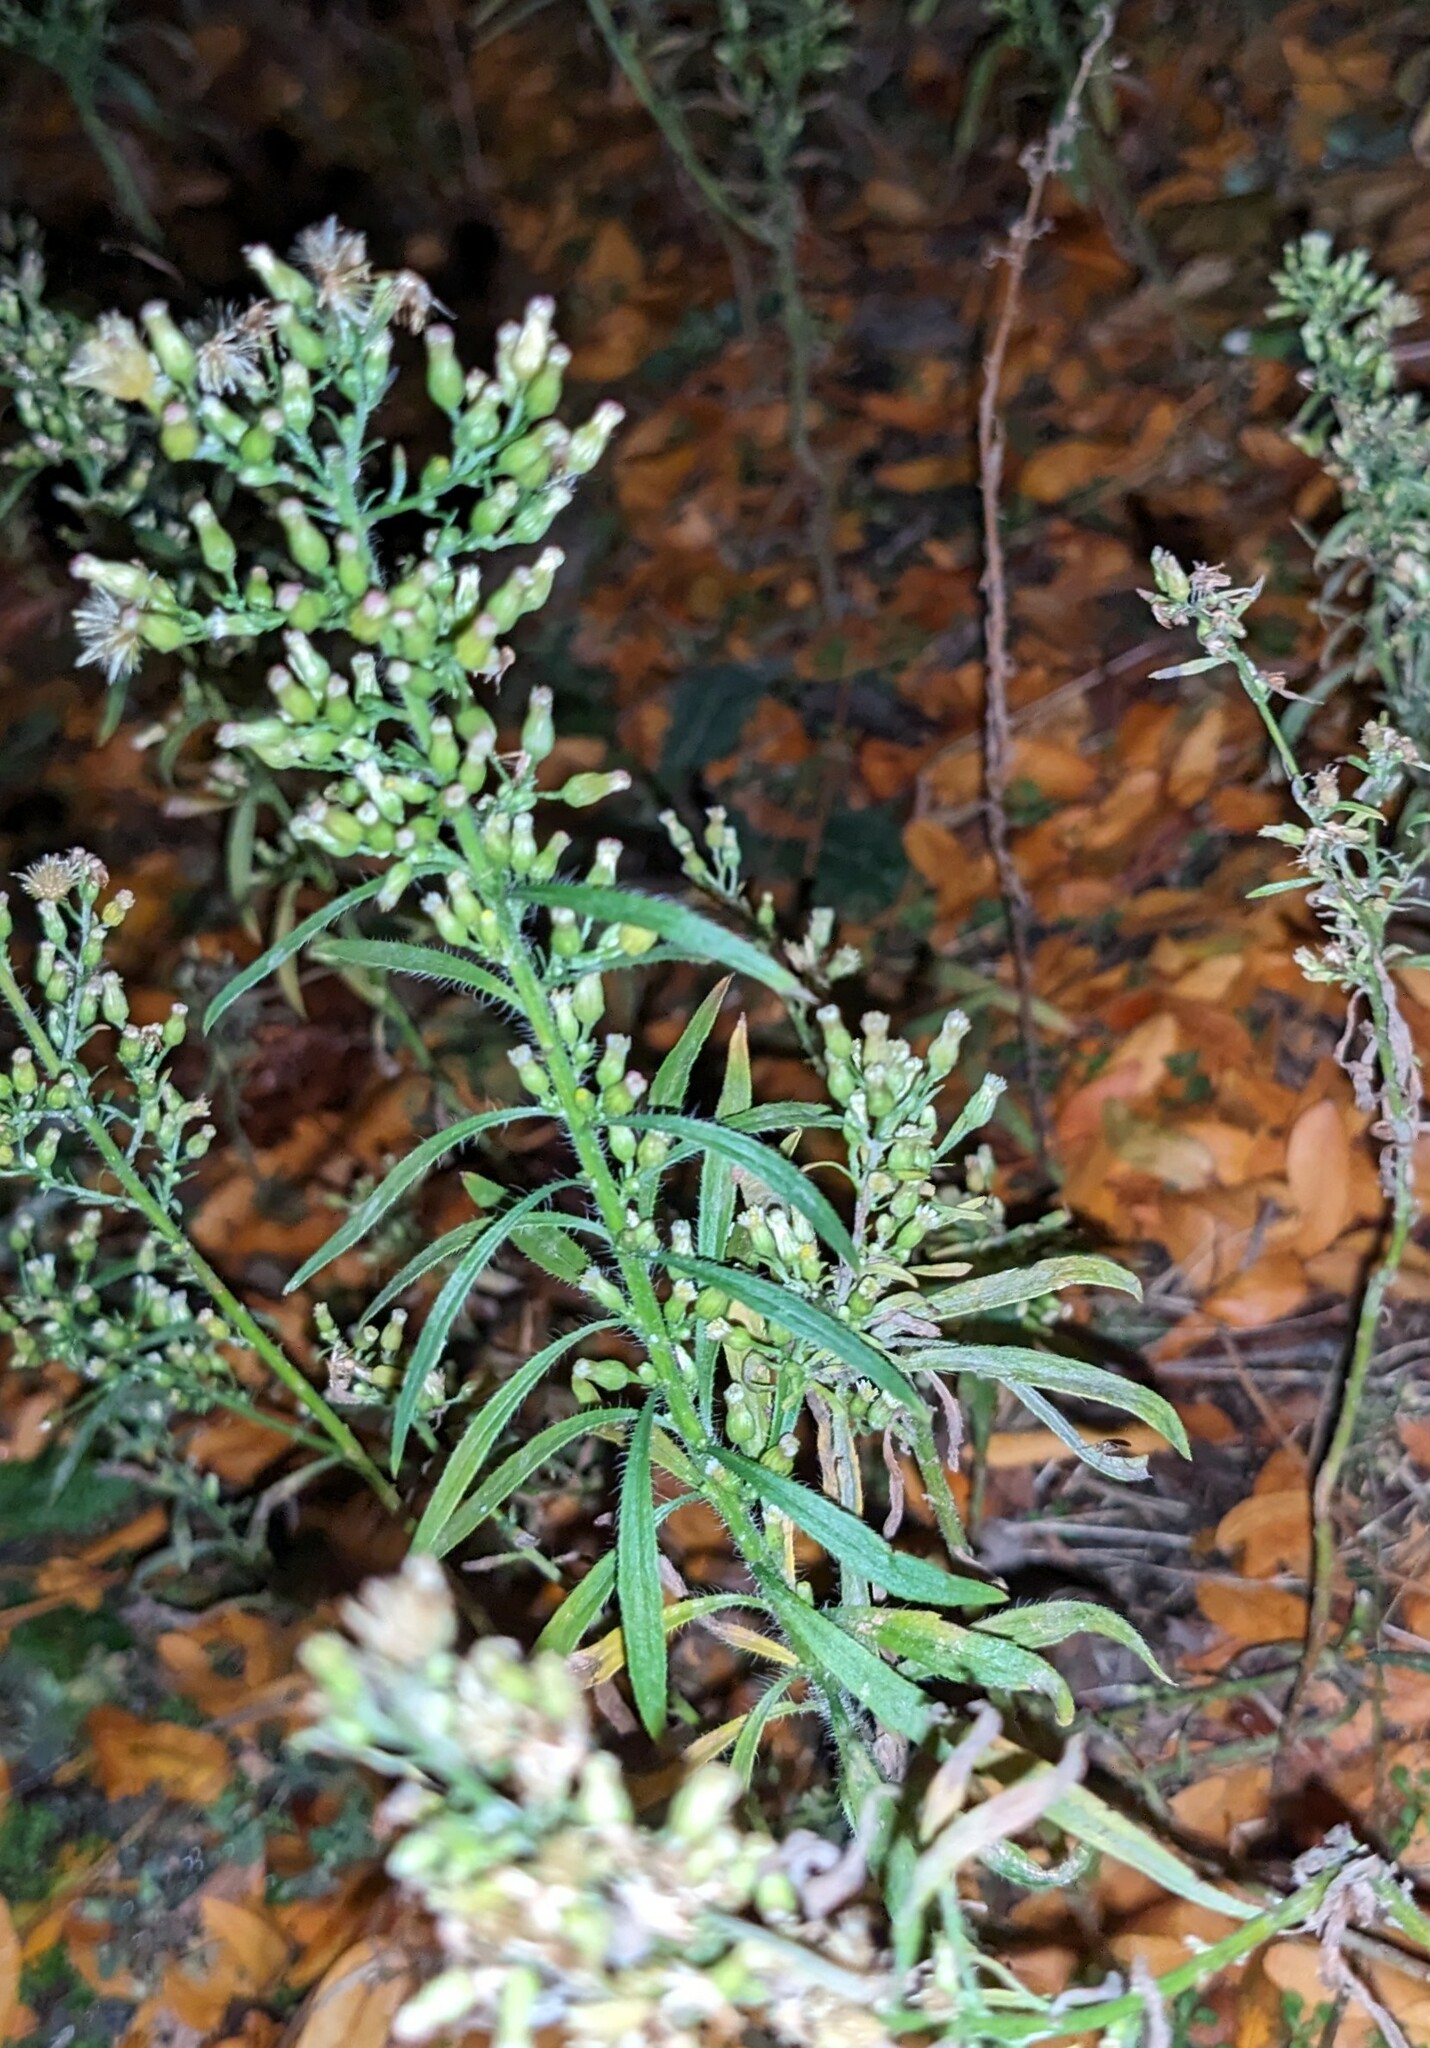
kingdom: Plantae
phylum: Tracheophyta
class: Magnoliopsida
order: Asterales
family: Asteraceae
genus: Erigeron
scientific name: Erigeron canadensis
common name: Canadian fleabane
